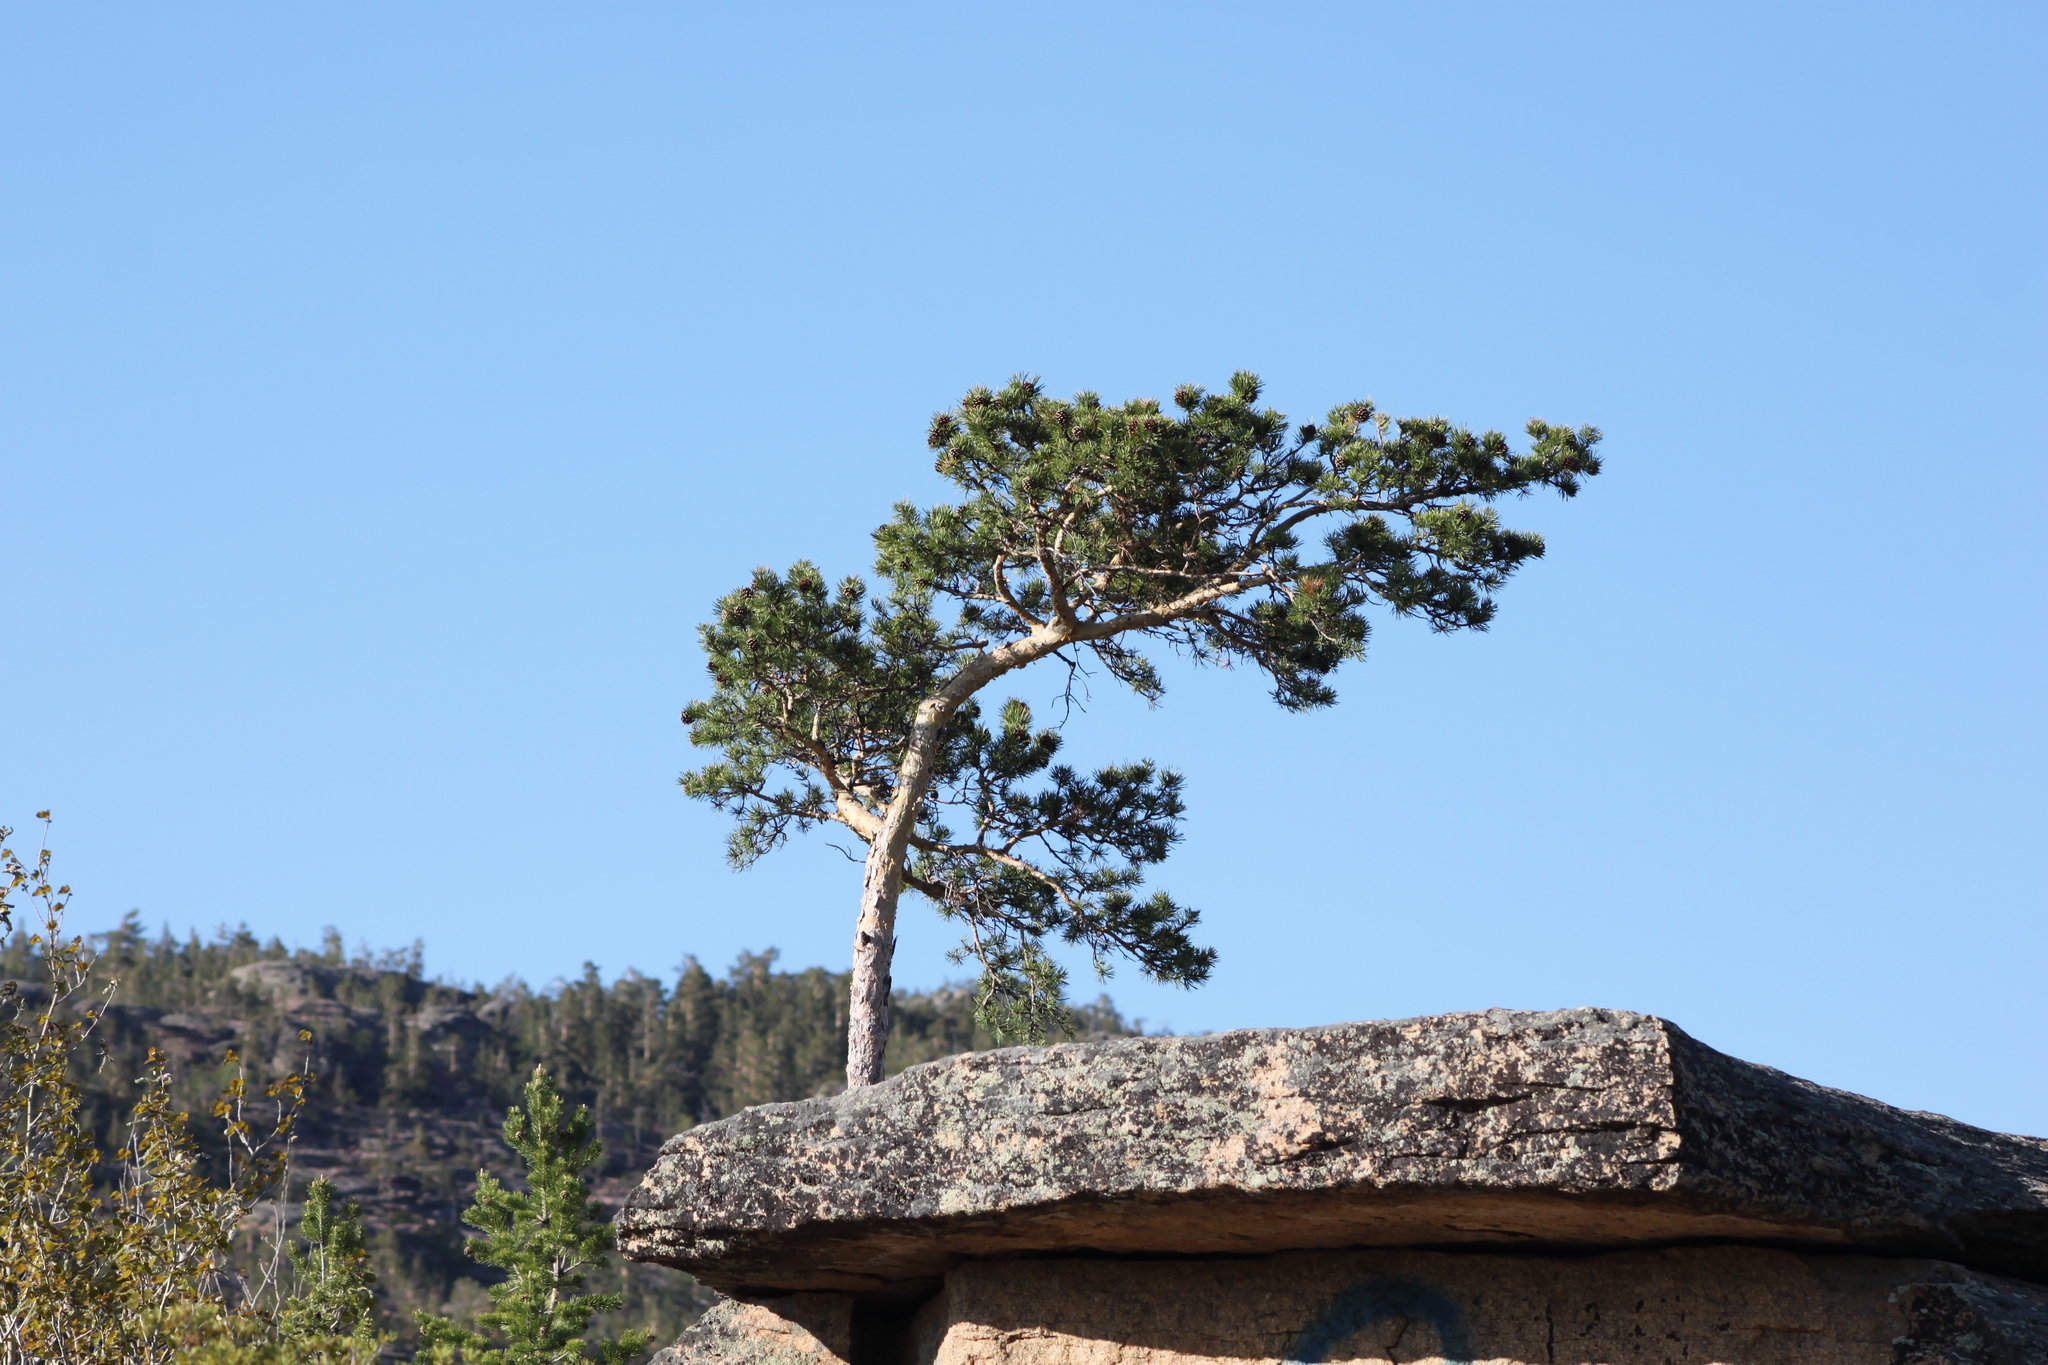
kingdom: Plantae
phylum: Tracheophyta
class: Pinopsida
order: Pinales
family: Pinaceae
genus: Pinus
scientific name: Pinus sylvestris
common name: Scots pine
